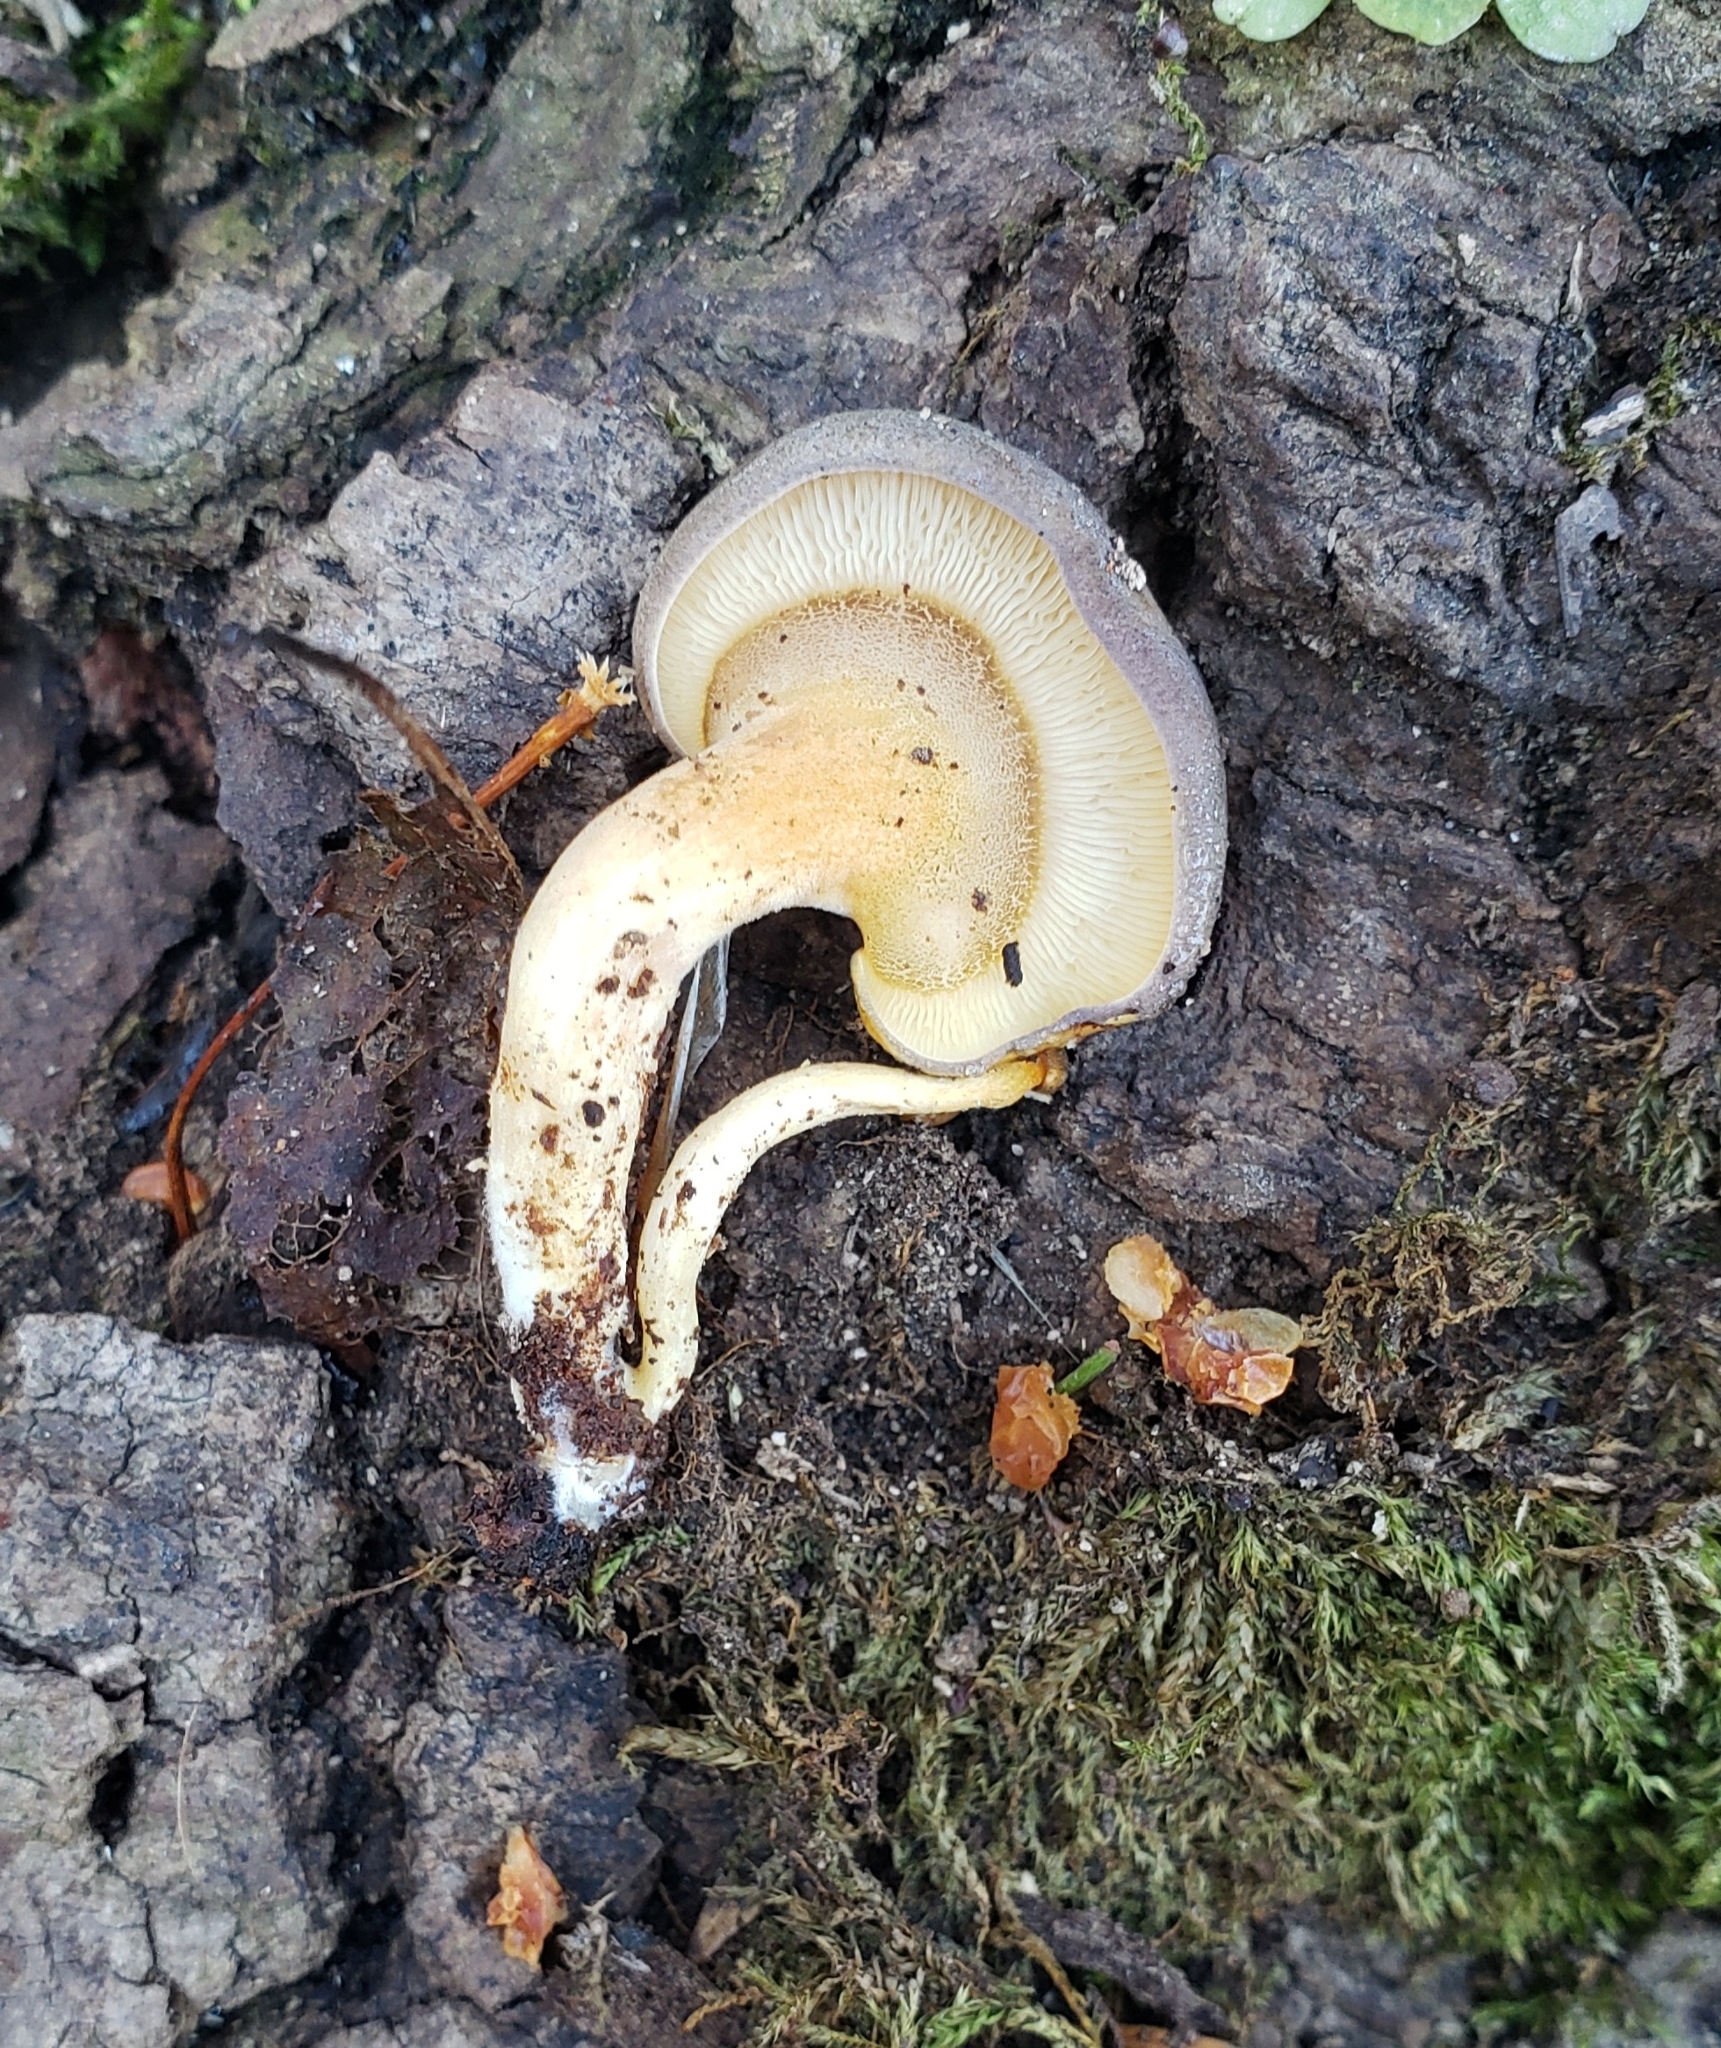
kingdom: Fungi
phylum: Basidiomycota
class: Agaricomycetes
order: Agaricales
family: Sarcomyxaceae
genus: Sarcomyxa
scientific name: Sarcomyxa serotina
